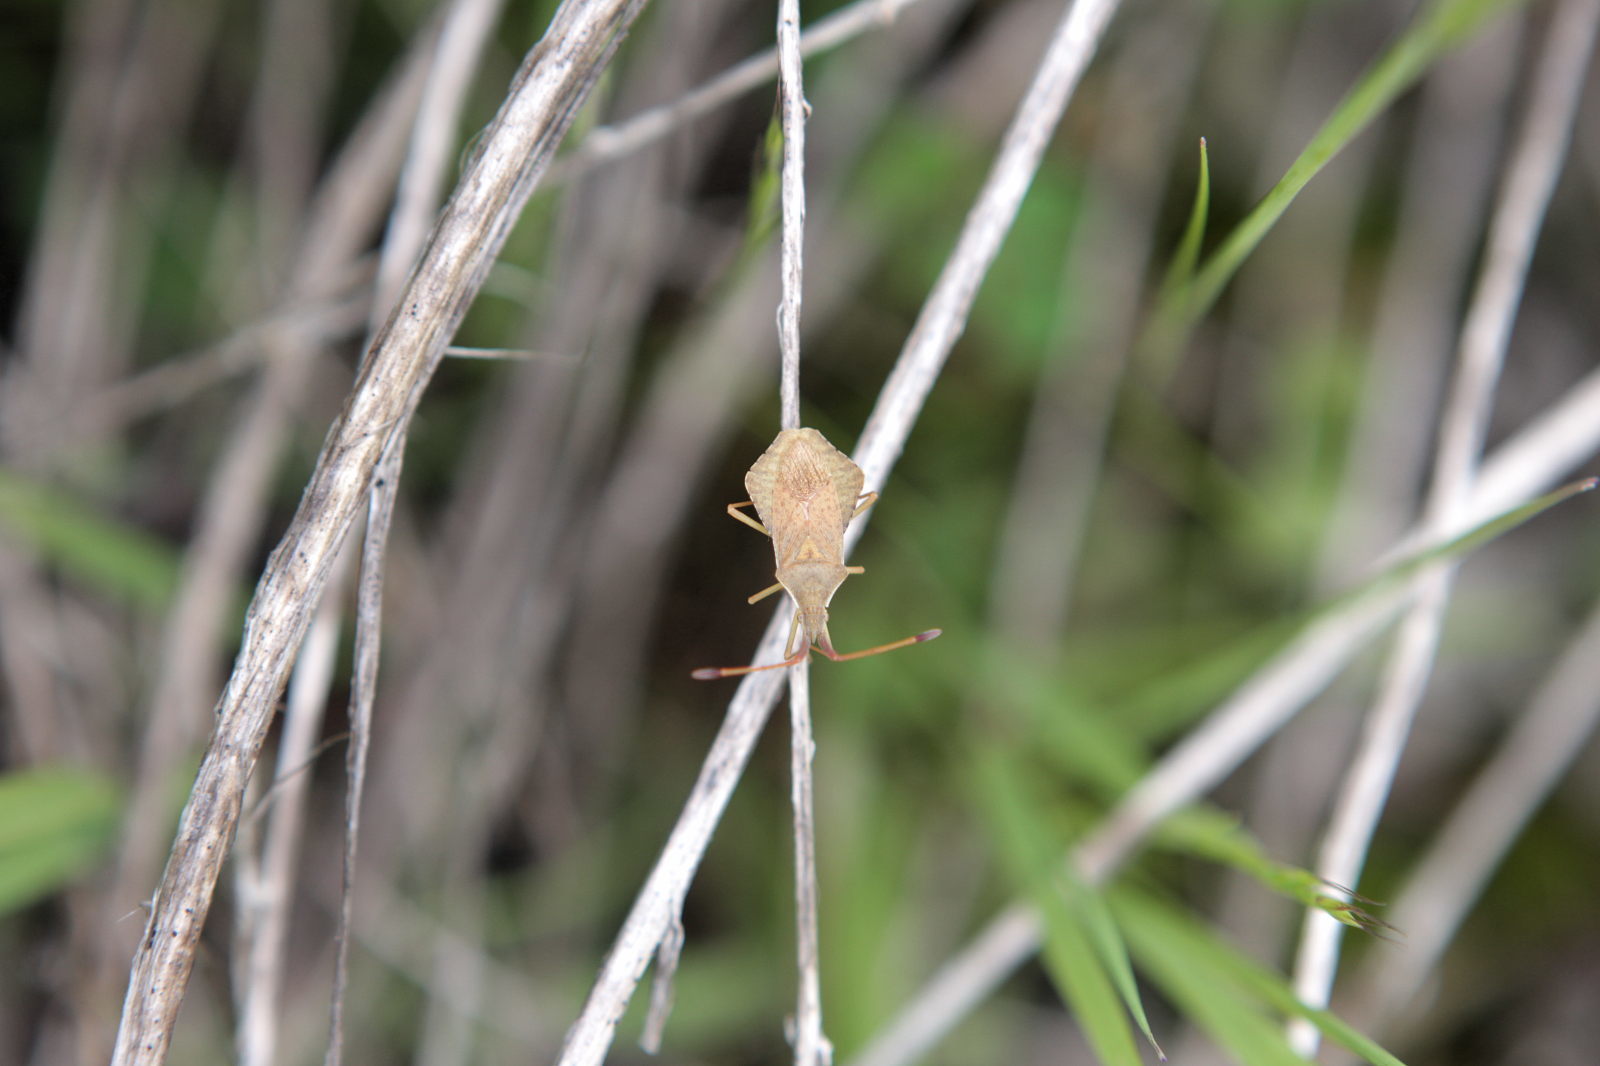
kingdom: Animalia
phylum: Arthropoda
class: Insecta
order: Hemiptera
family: Coreidae
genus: Syromastus
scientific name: Syromastus rhombeus
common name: Rhombic leatherbug
